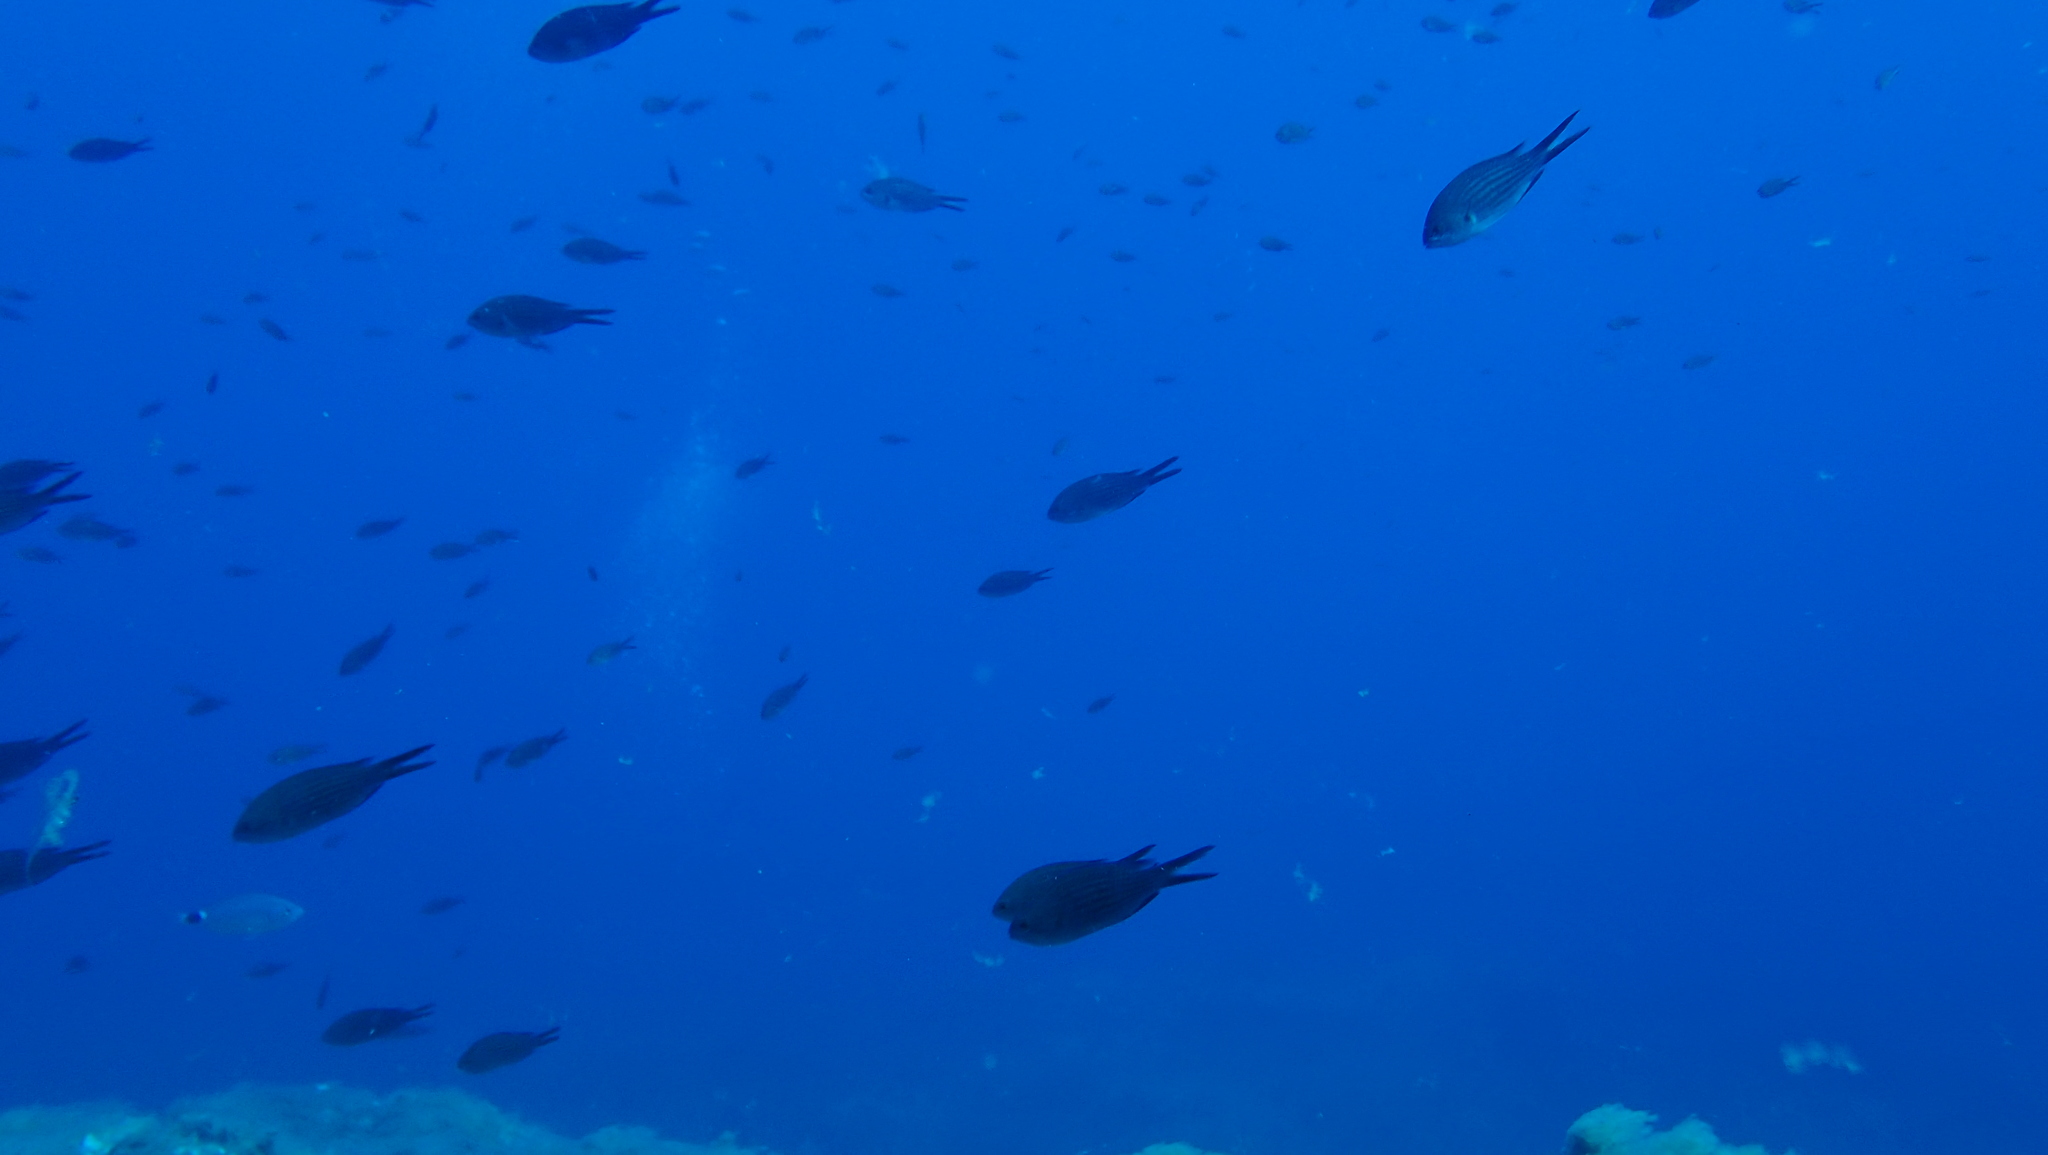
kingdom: Animalia
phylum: Chordata
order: Perciformes
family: Pomacentridae
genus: Chromis
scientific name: Chromis chromis
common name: Damselfish
